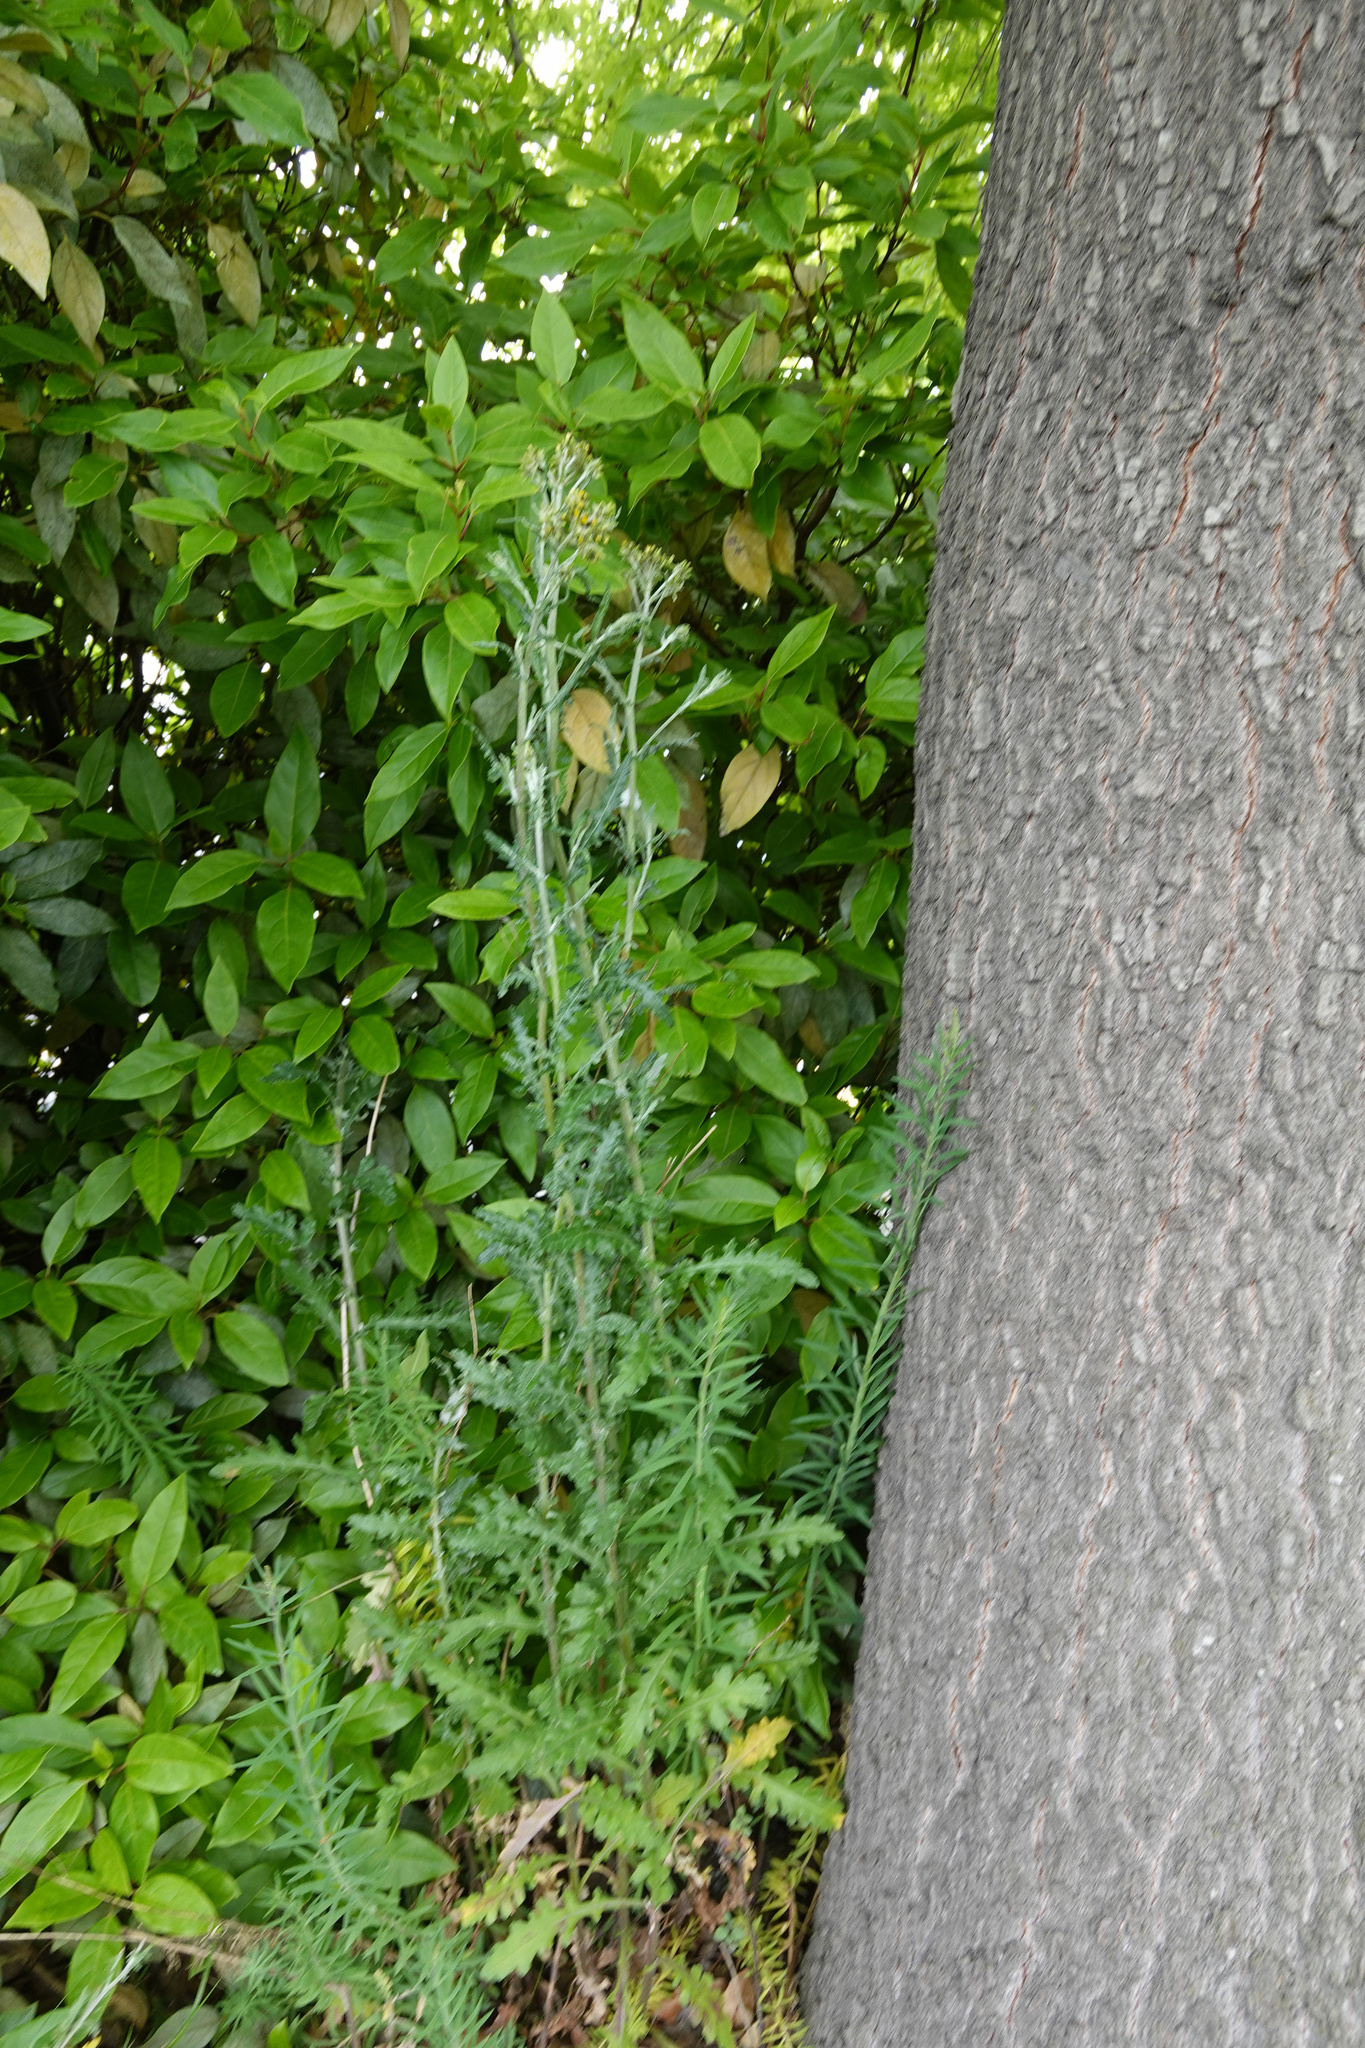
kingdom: Plantae
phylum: Tracheophyta
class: Magnoliopsida
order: Asterales
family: Asteraceae
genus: Senecio
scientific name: Senecio glomeratus
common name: Cutleaf burnweed
